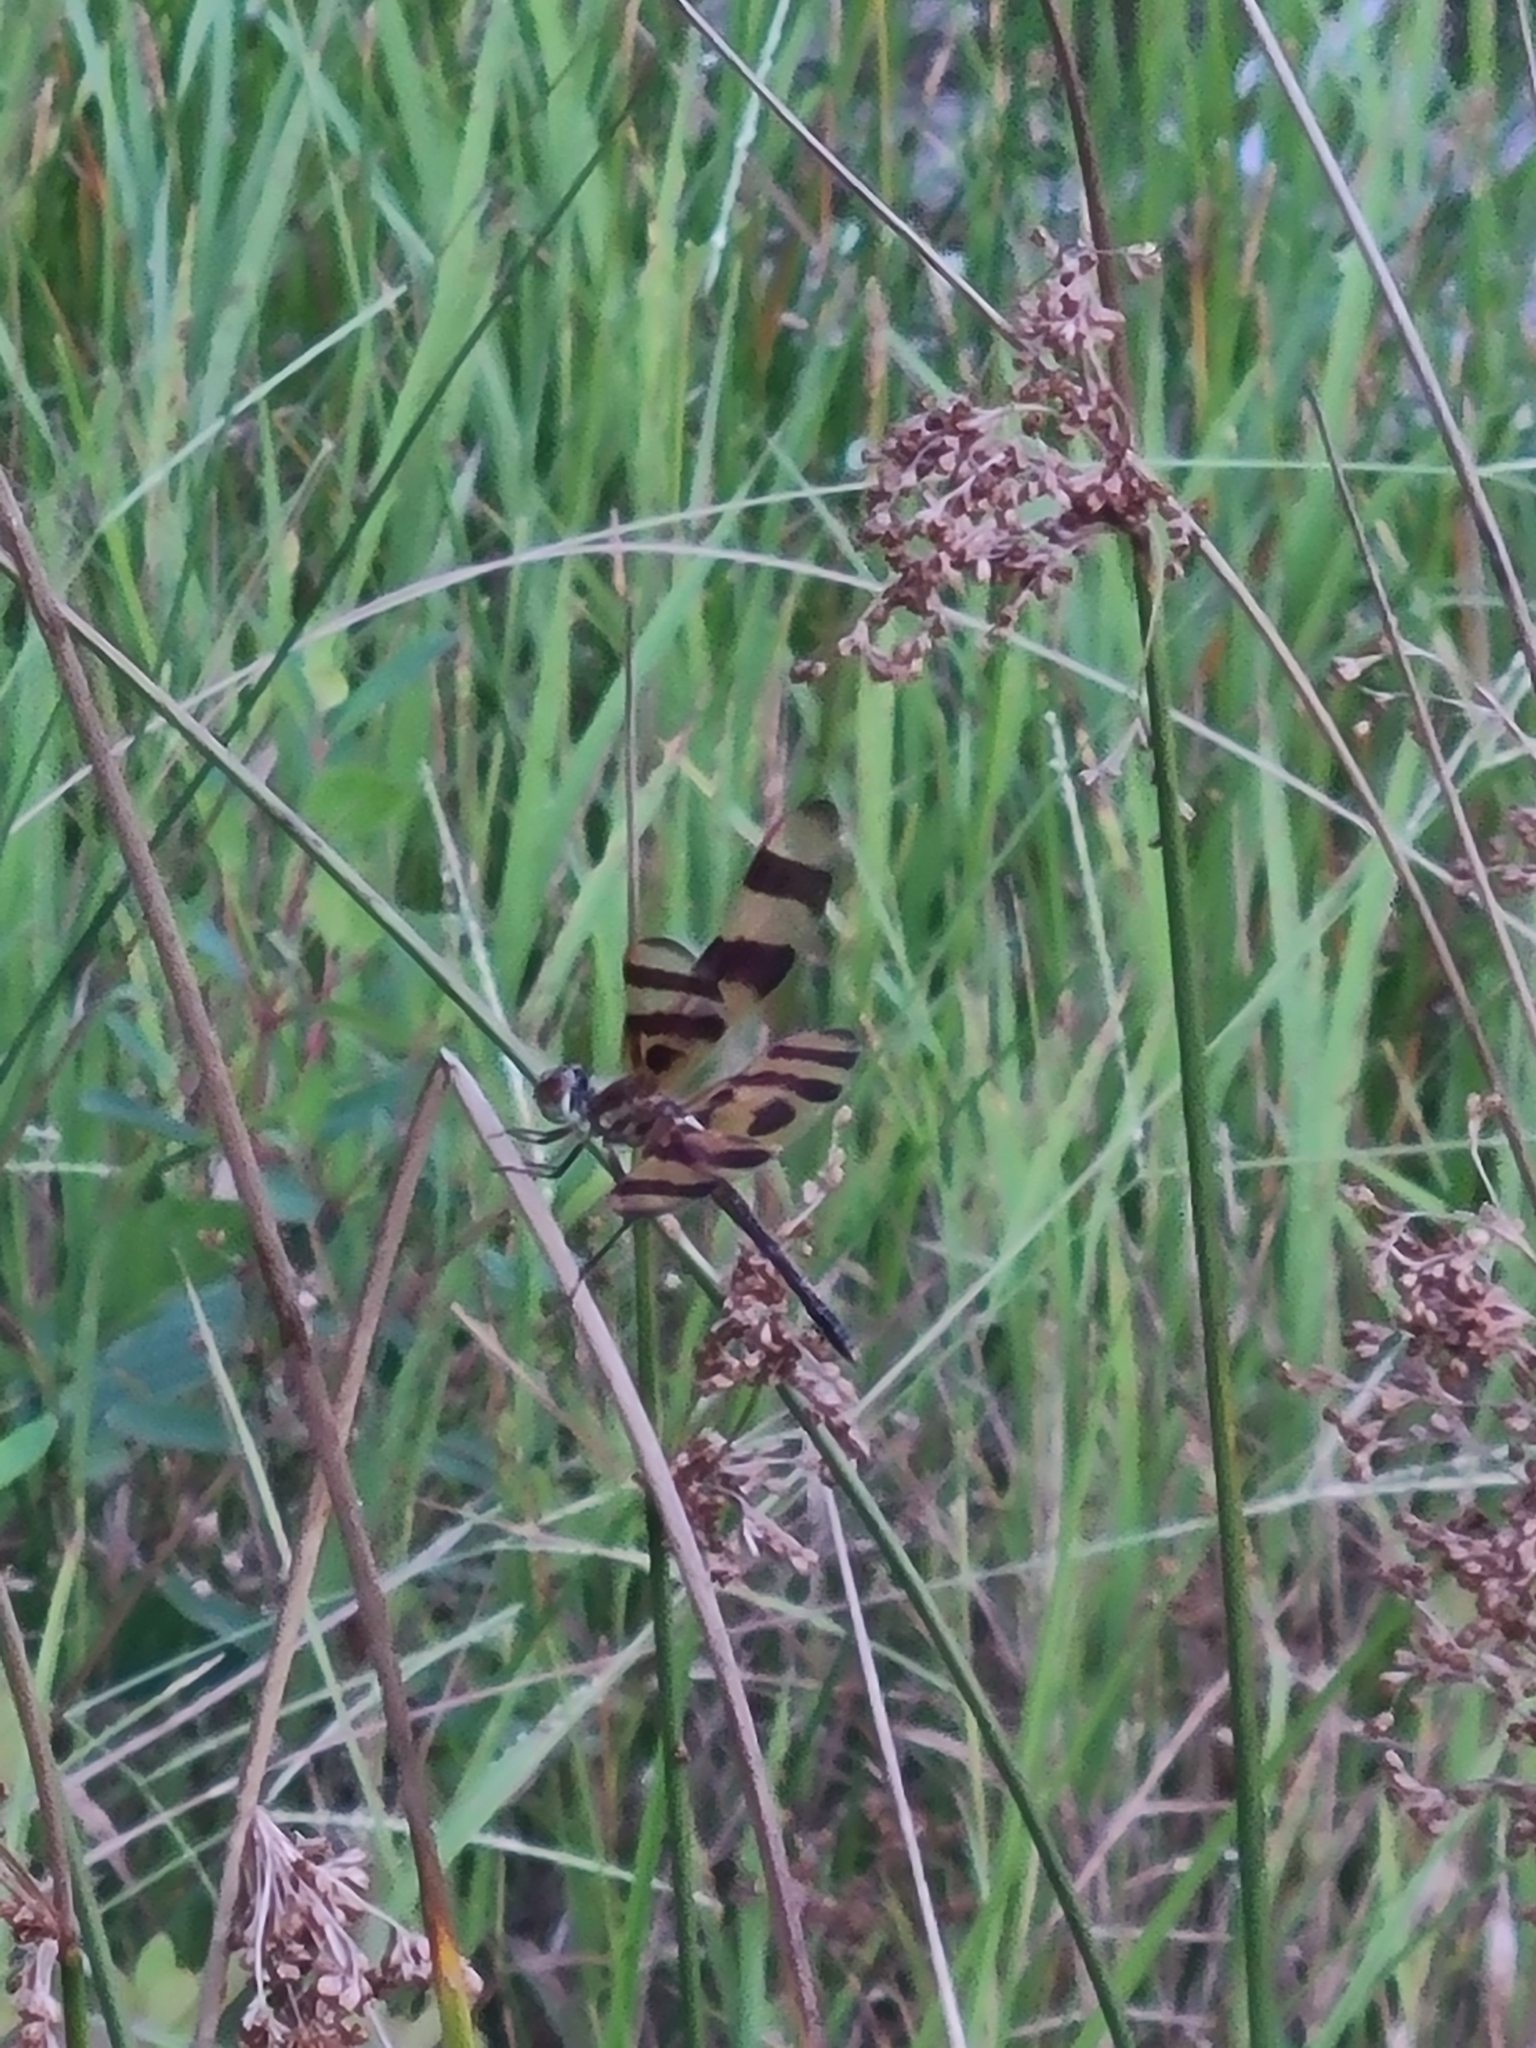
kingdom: Animalia
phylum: Arthropoda
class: Insecta
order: Odonata
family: Libellulidae
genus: Celithemis
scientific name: Celithemis eponina
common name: Halloween pennant
